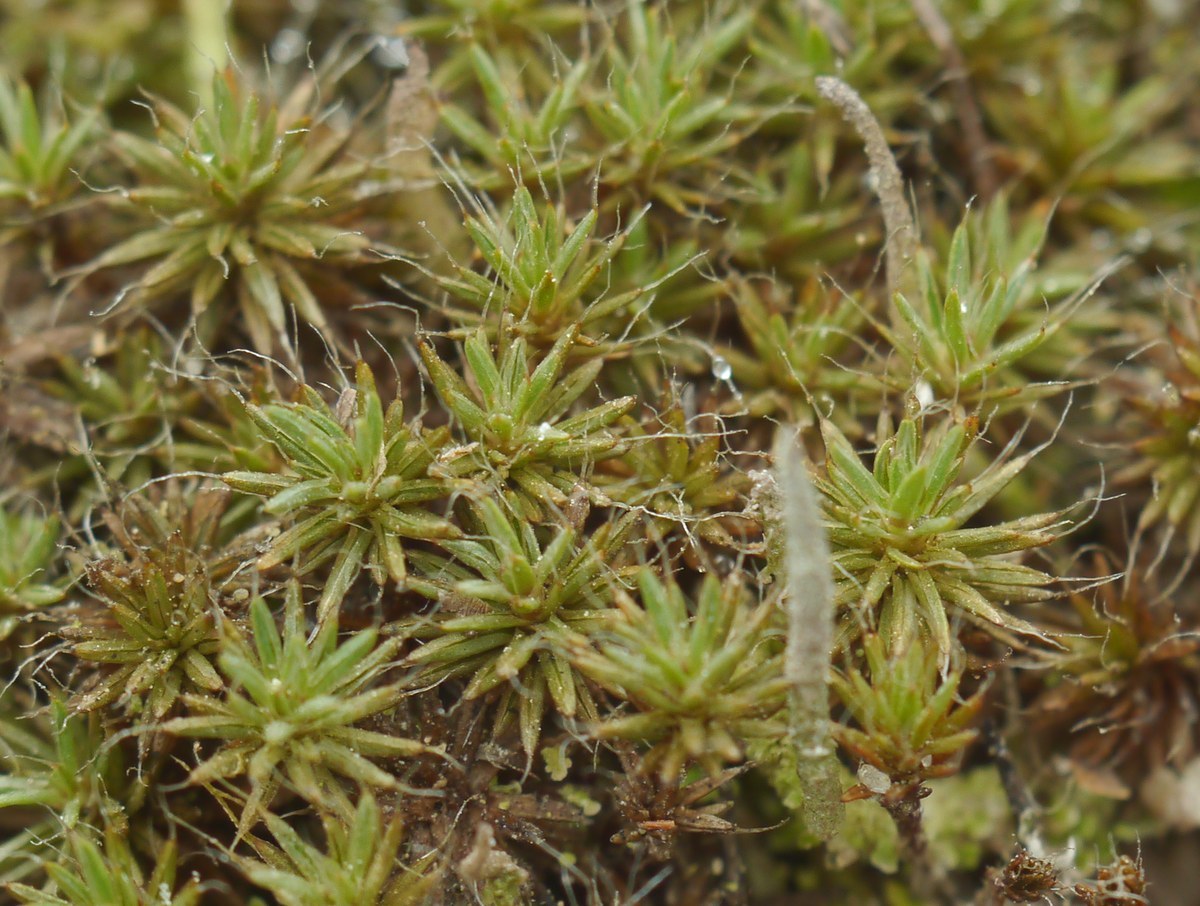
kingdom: Plantae
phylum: Bryophyta
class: Polytrichopsida
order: Polytrichales
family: Polytrichaceae
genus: Polytrichum
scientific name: Polytrichum piliferum
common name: Bristly haircap
